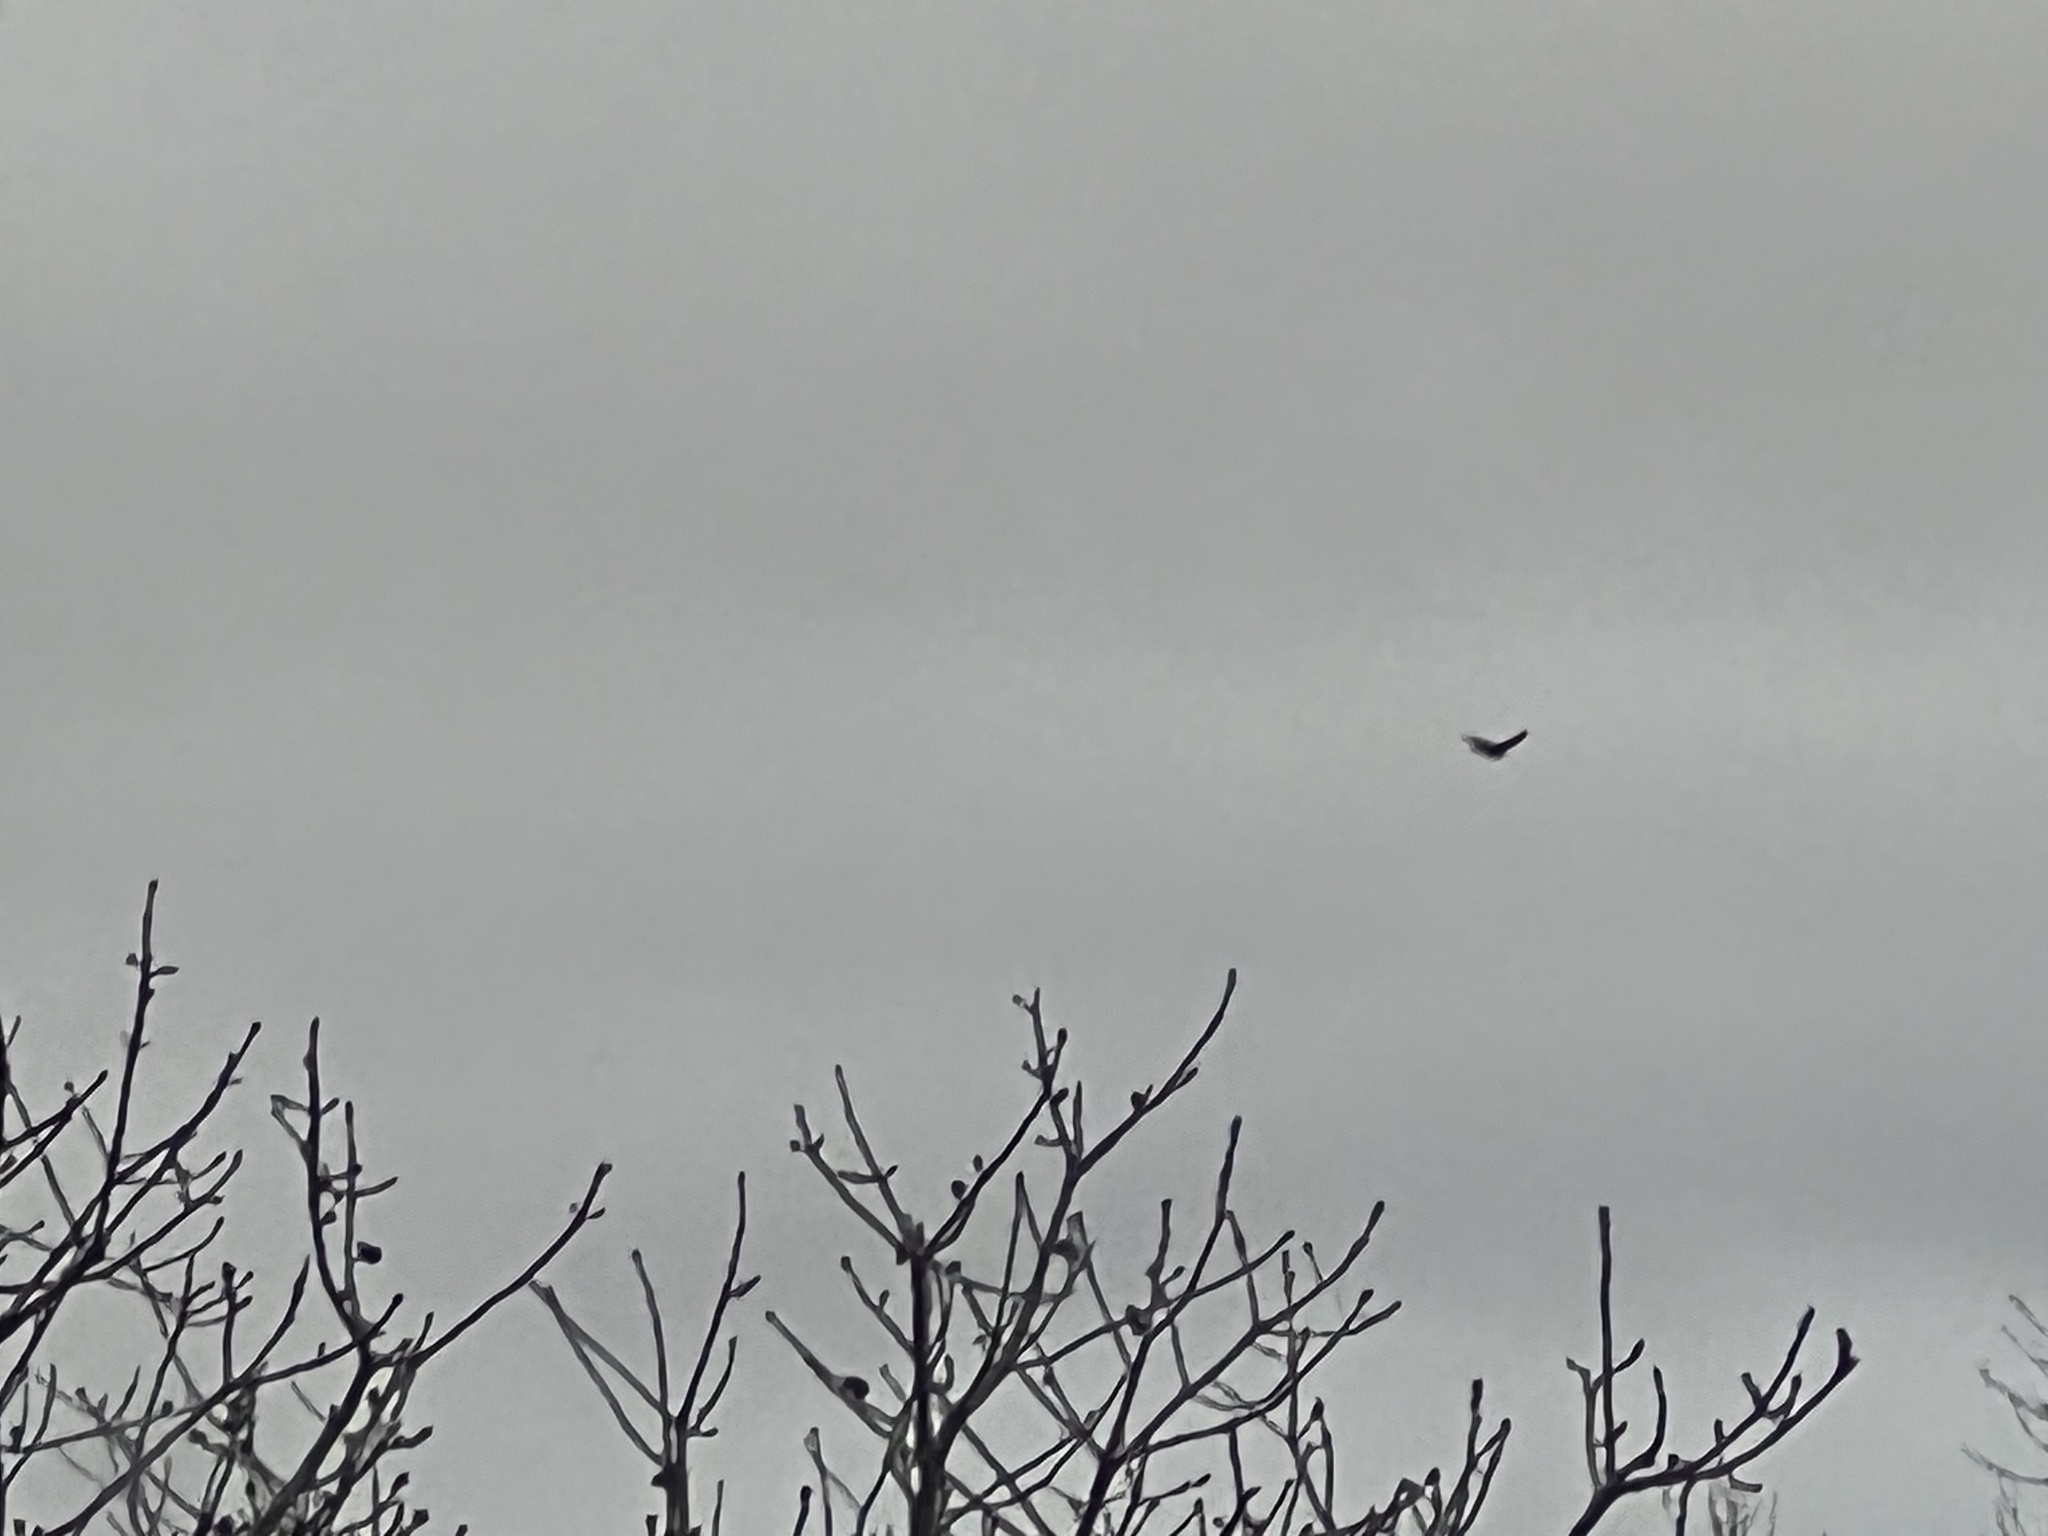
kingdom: Animalia
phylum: Chordata
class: Aves
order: Accipitriformes
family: Cathartidae
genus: Cathartes
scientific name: Cathartes aura
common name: Turkey vulture
